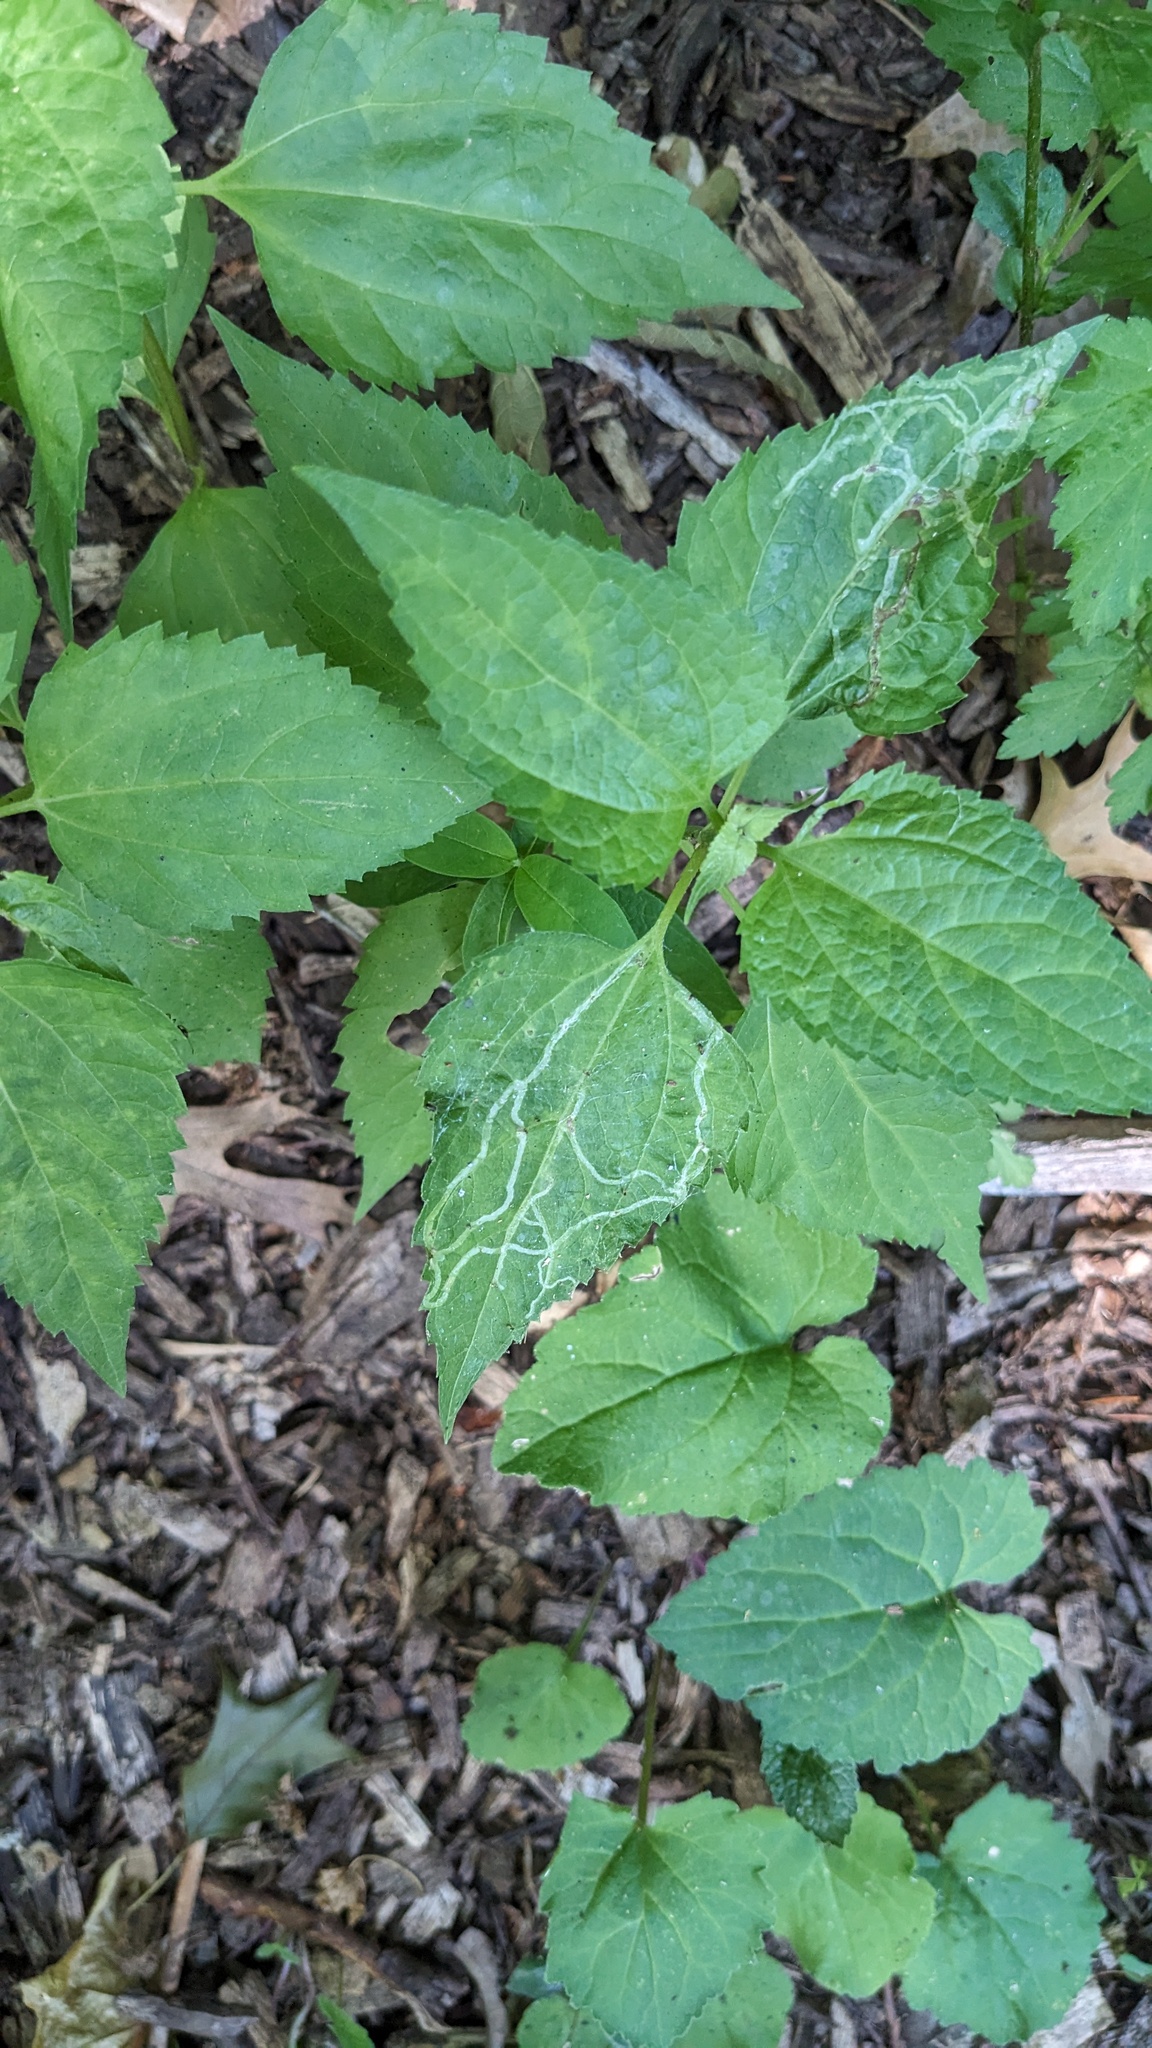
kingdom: Animalia
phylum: Arthropoda
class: Insecta
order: Diptera
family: Agromyzidae
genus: Liriomyza
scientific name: Liriomyza
